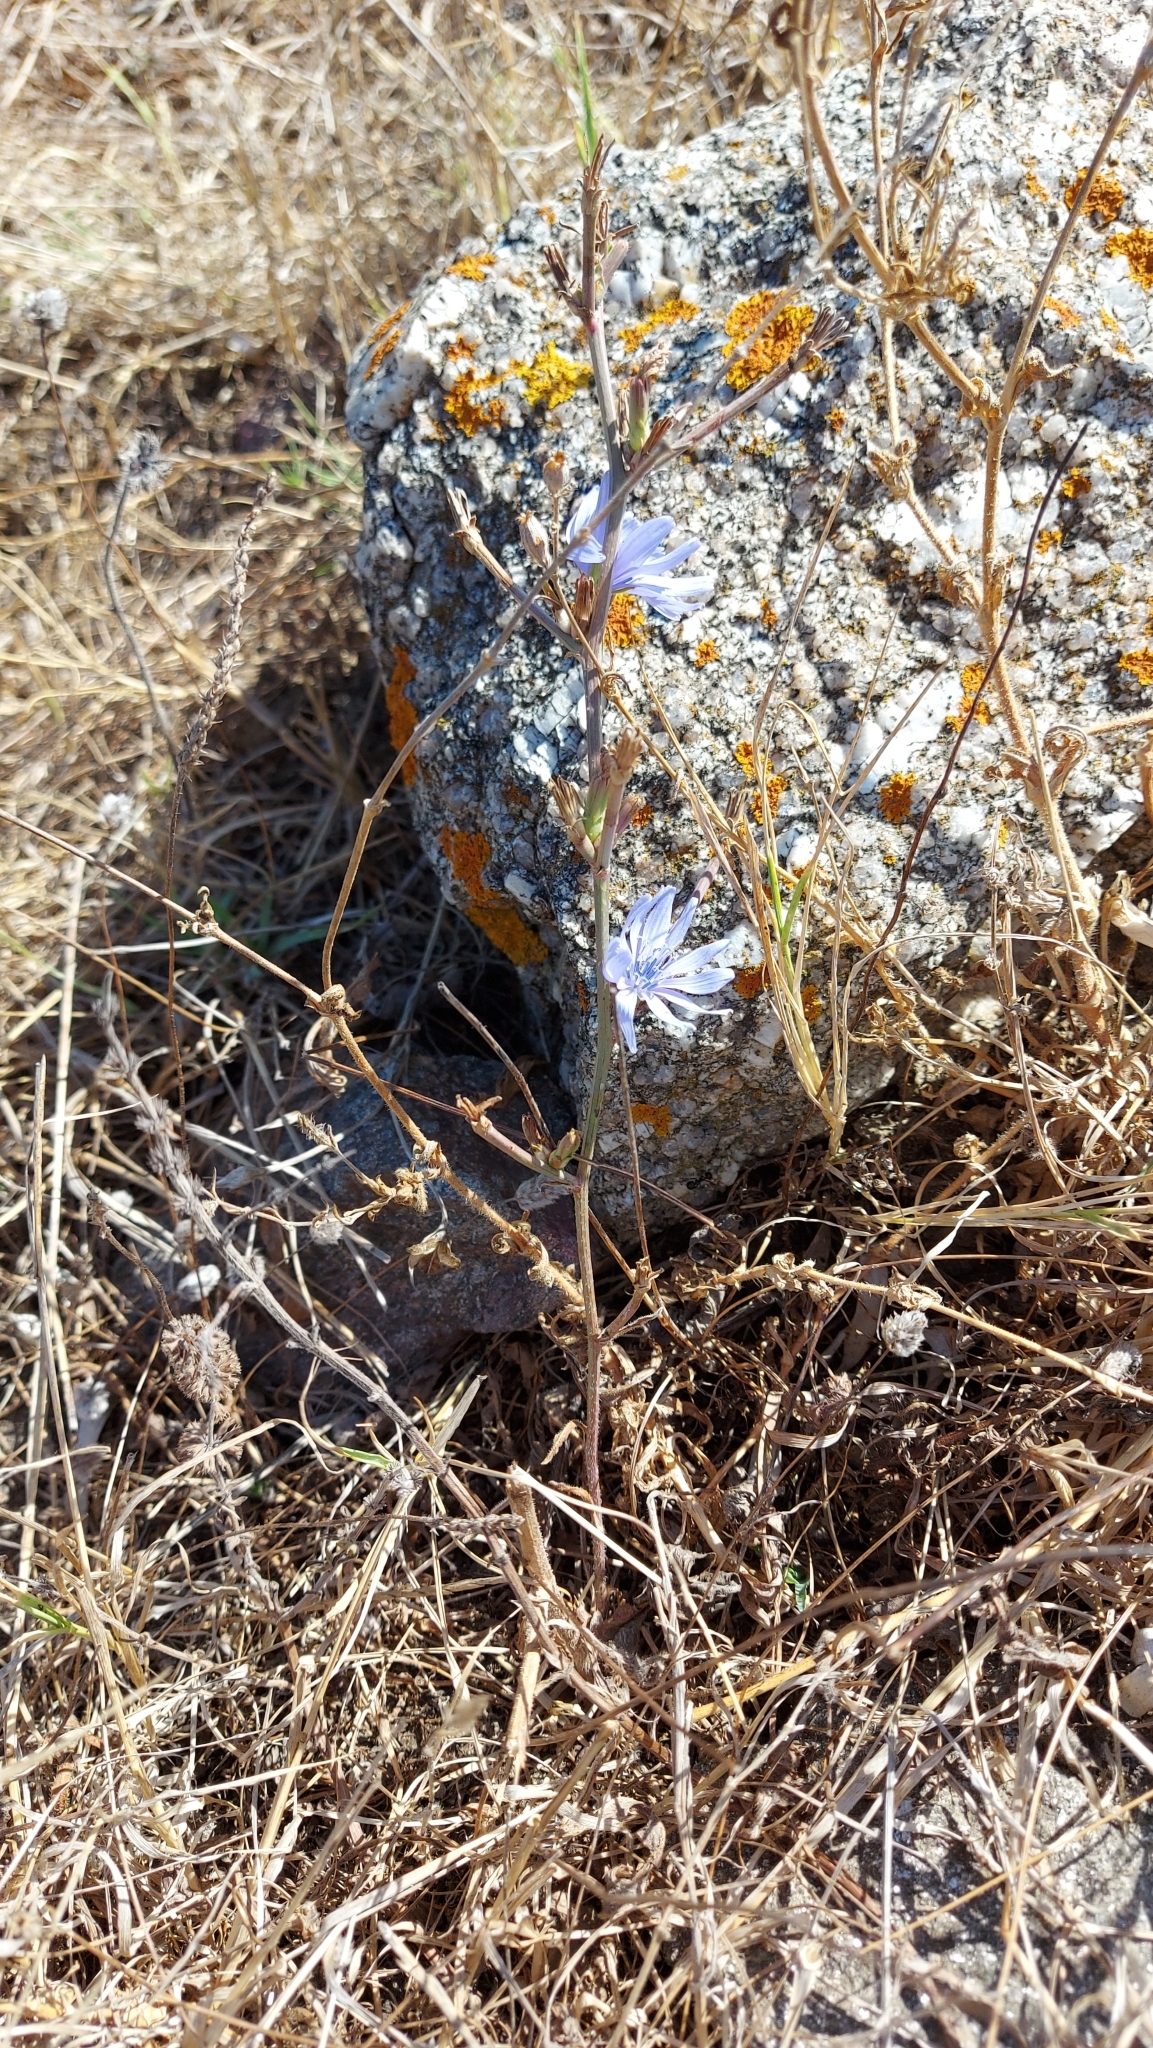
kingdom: Plantae
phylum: Tracheophyta
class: Magnoliopsida
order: Asterales
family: Asteraceae
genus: Cichorium
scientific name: Cichorium intybus
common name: Chicory
